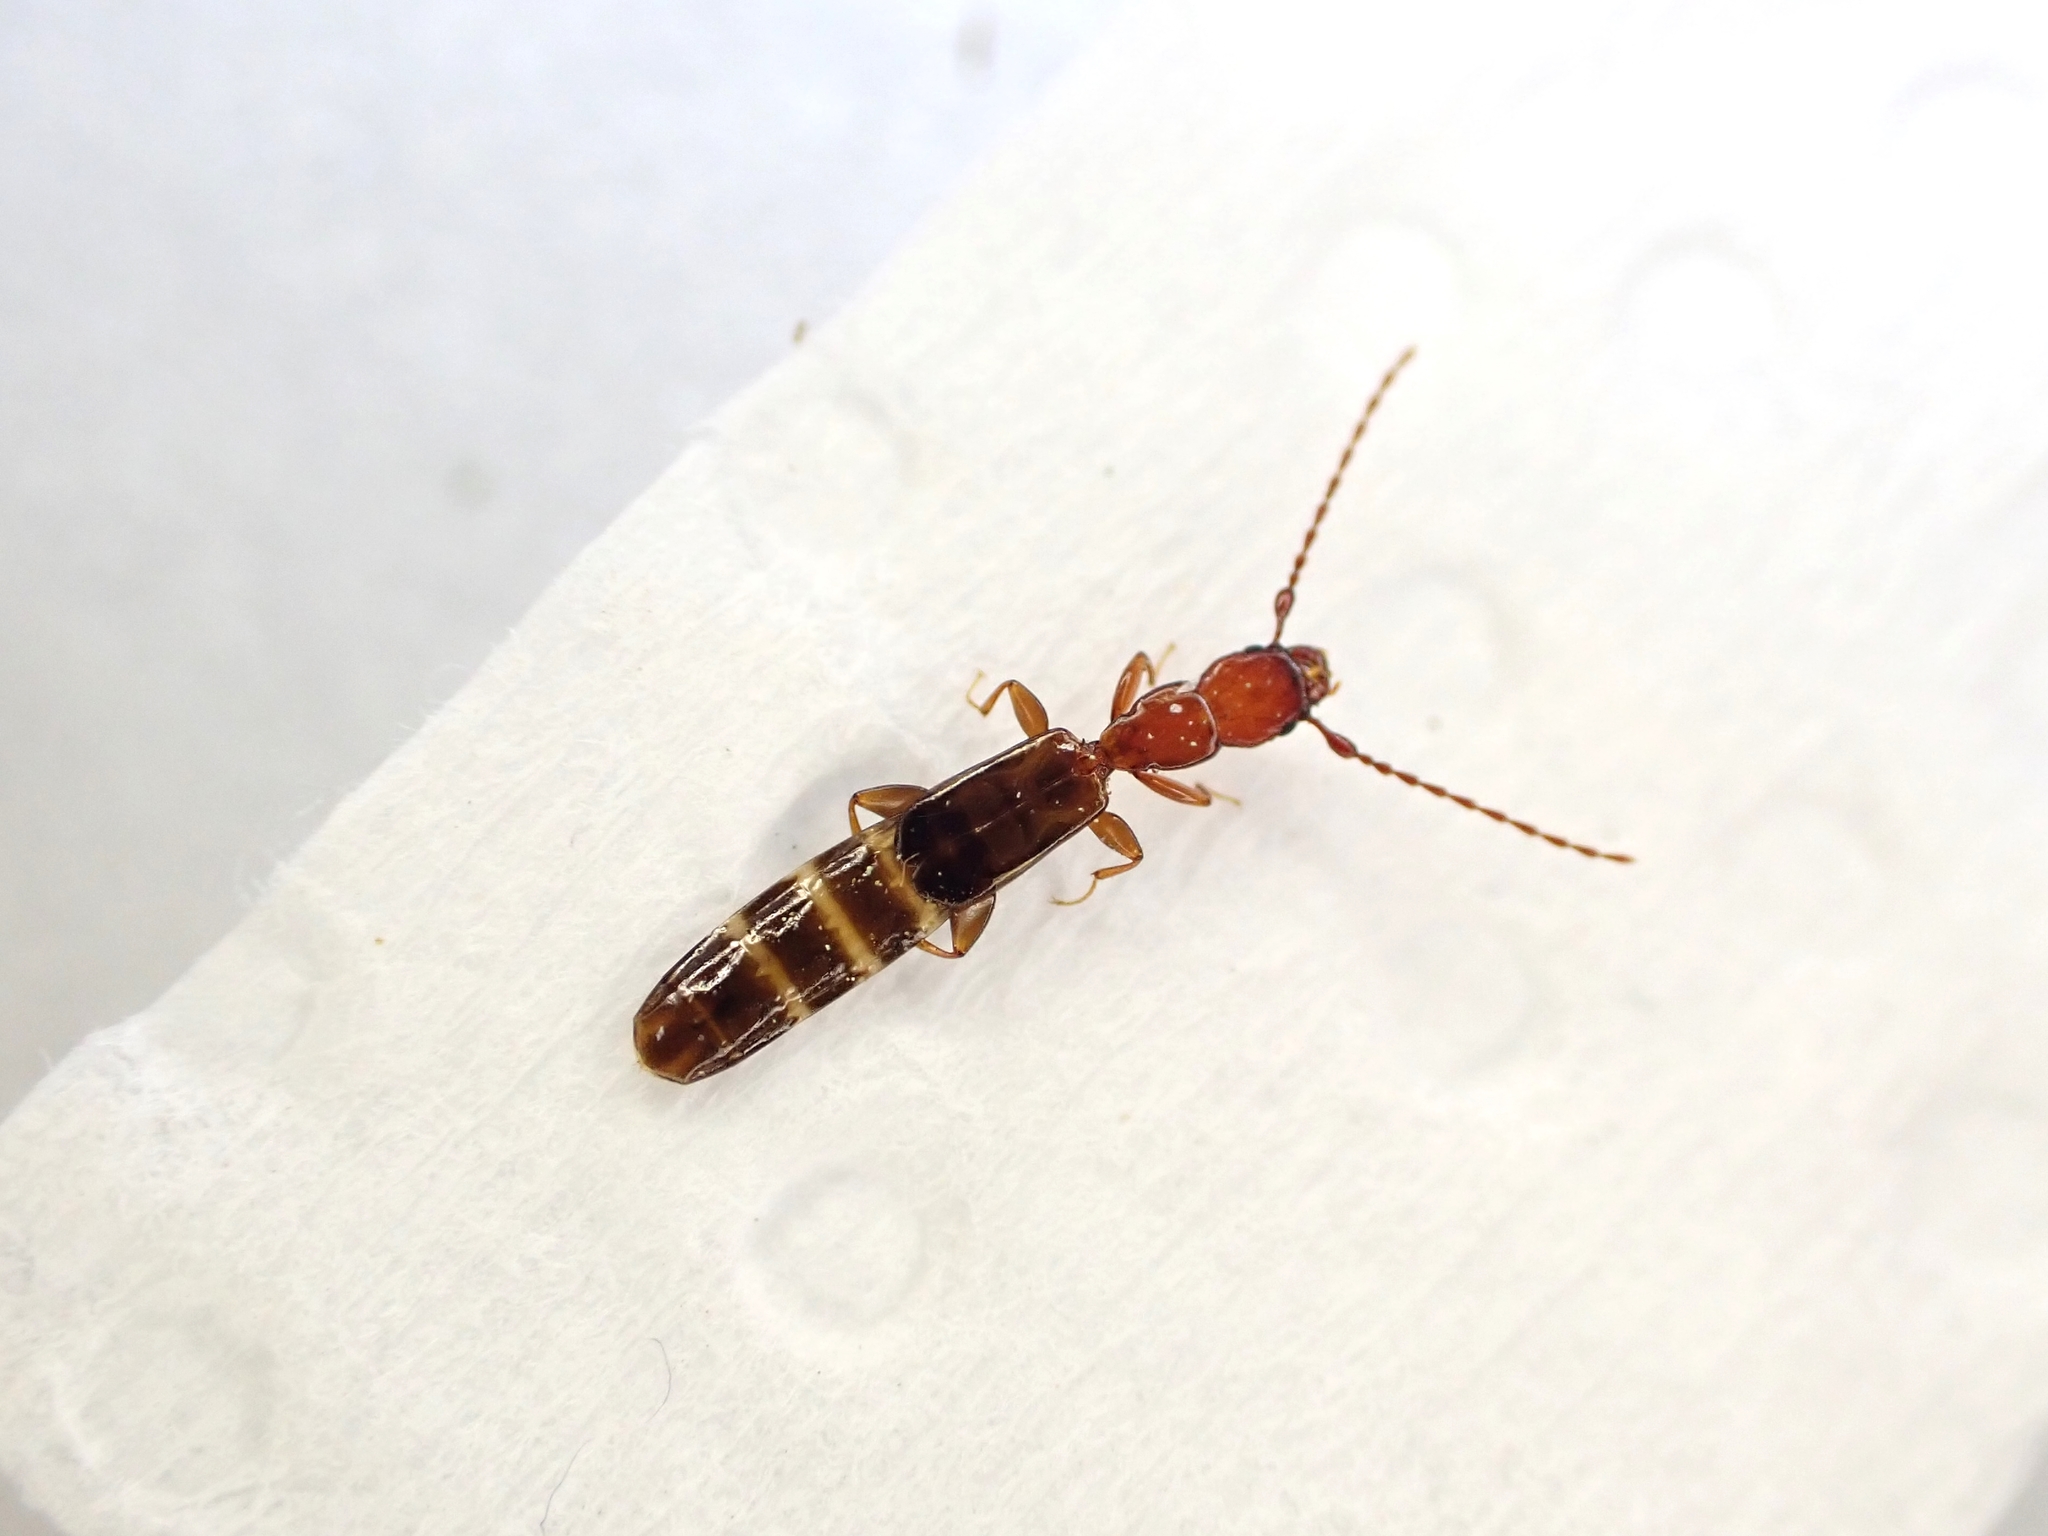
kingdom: Animalia
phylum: Arthropoda
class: Insecta
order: Coleoptera
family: Salpingidae
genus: Diagrypnodes
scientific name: Diagrypnodes
